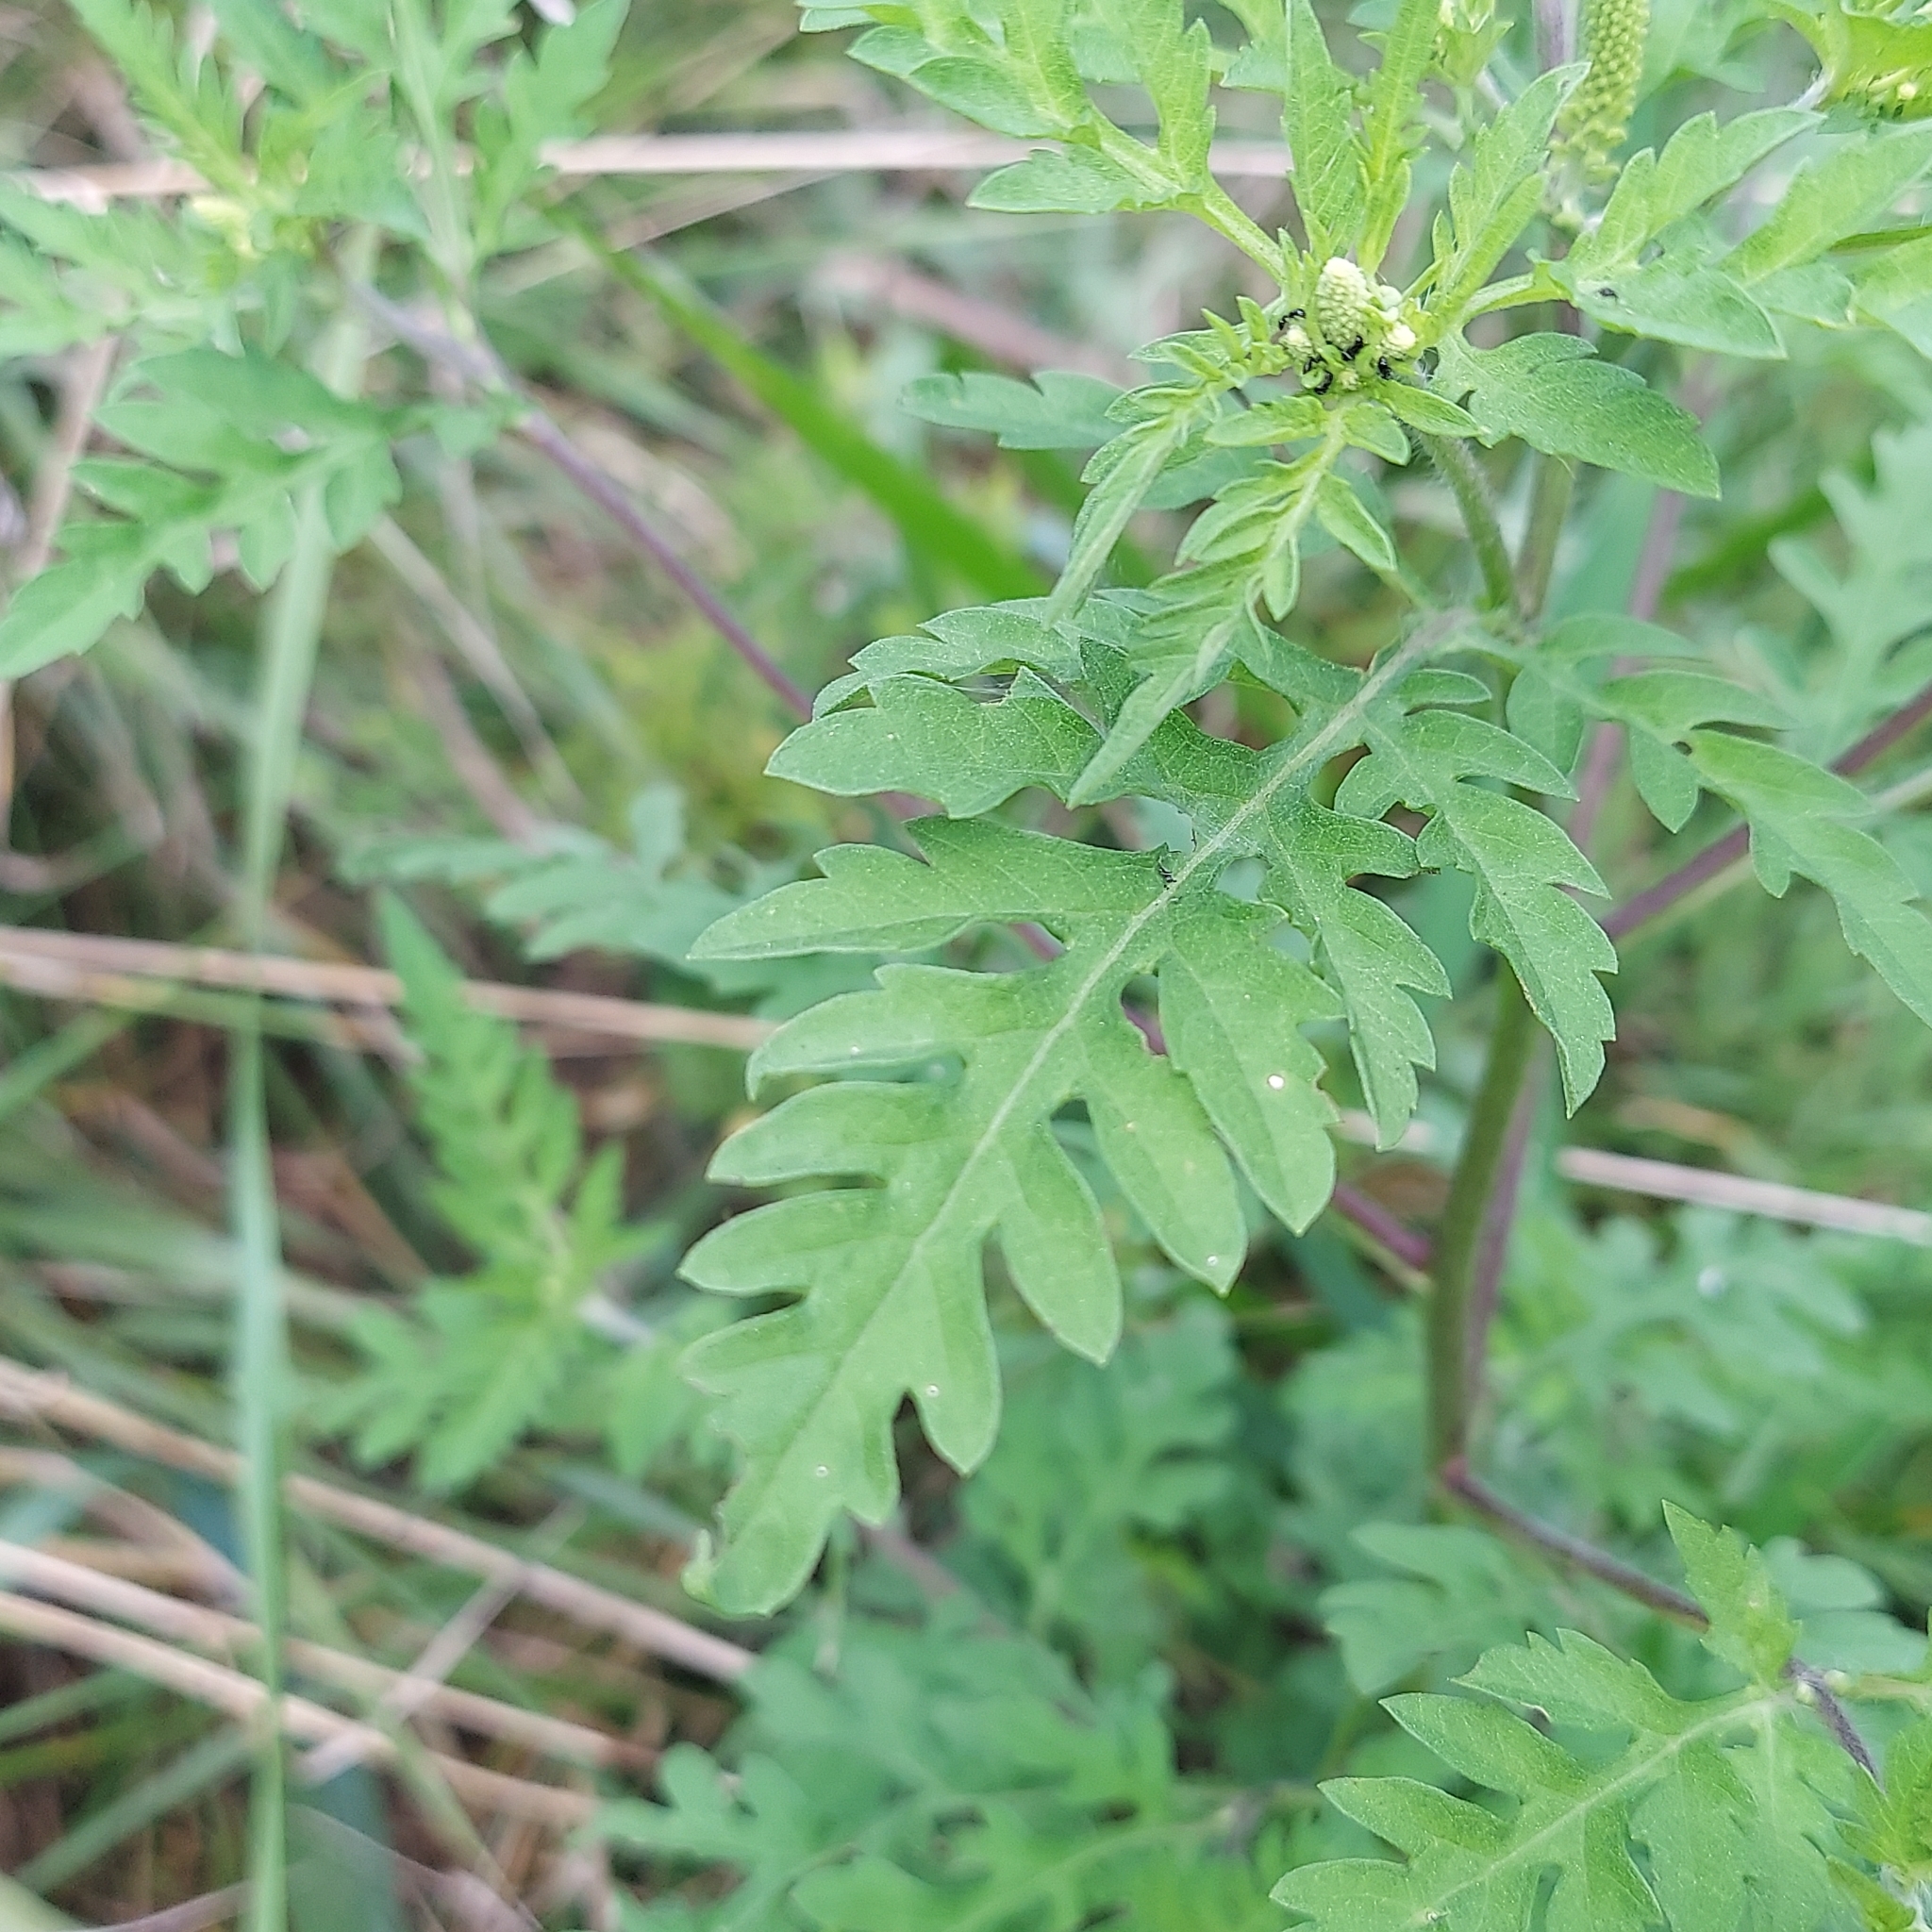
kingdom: Plantae
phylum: Tracheophyta
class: Magnoliopsida
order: Asterales
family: Asteraceae
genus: Ambrosia
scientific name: Ambrosia artemisiifolia
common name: Annual ragweed
